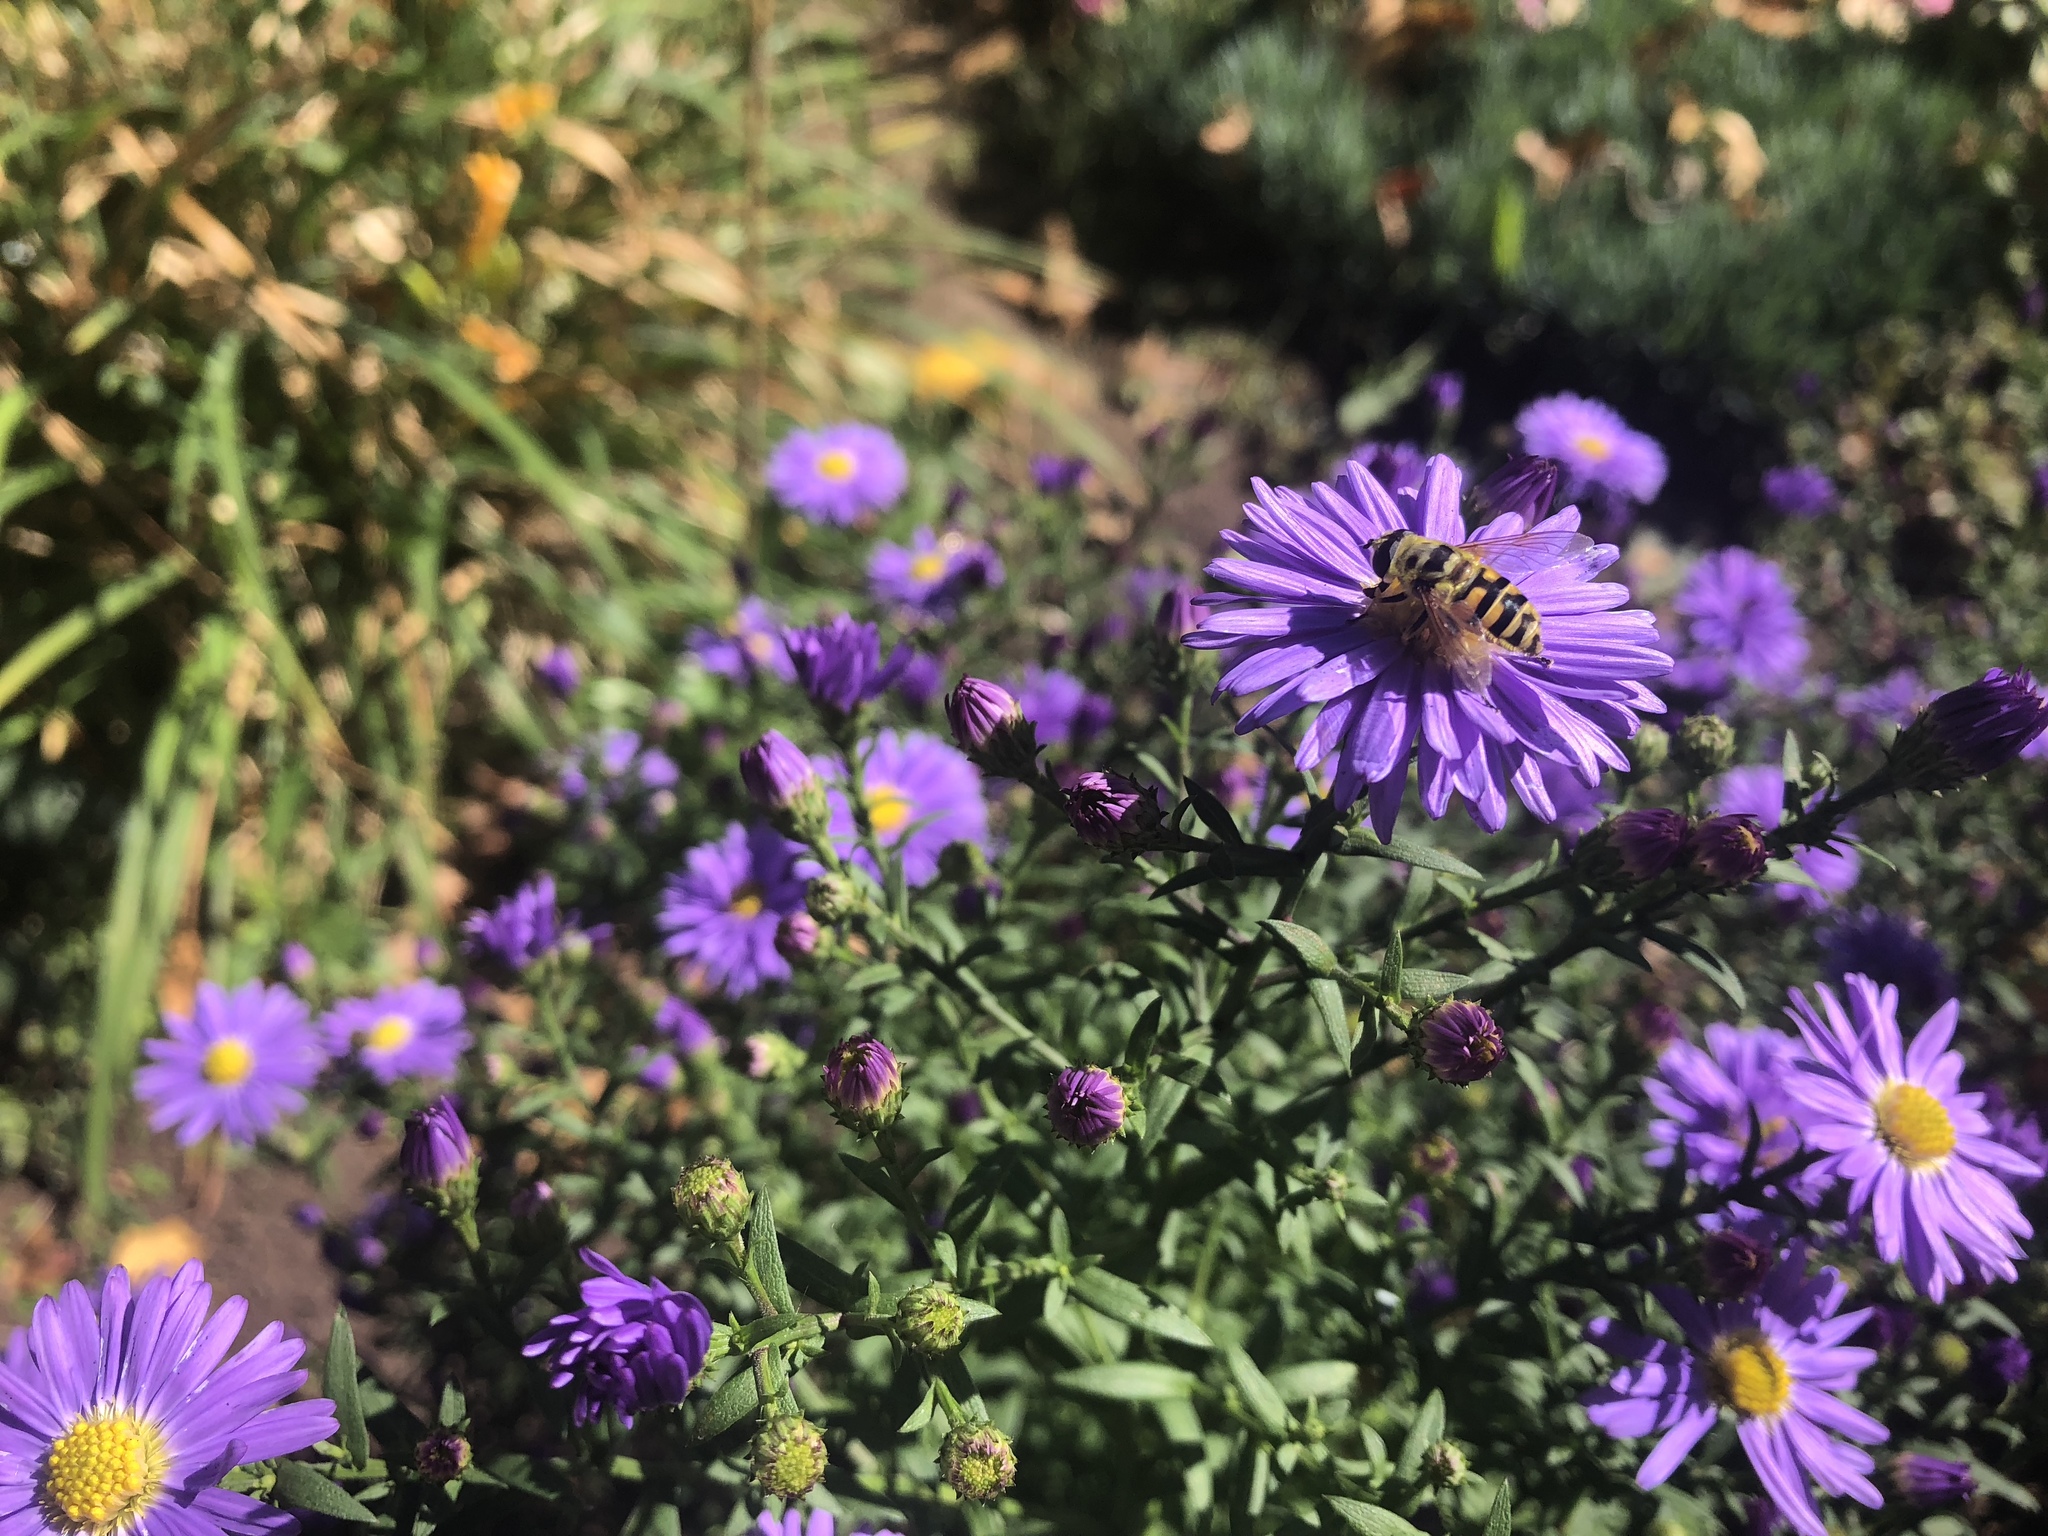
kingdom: Animalia
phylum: Arthropoda
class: Insecta
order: Diptera
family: Syrphidae
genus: Myathropa
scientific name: Myathropa florea
